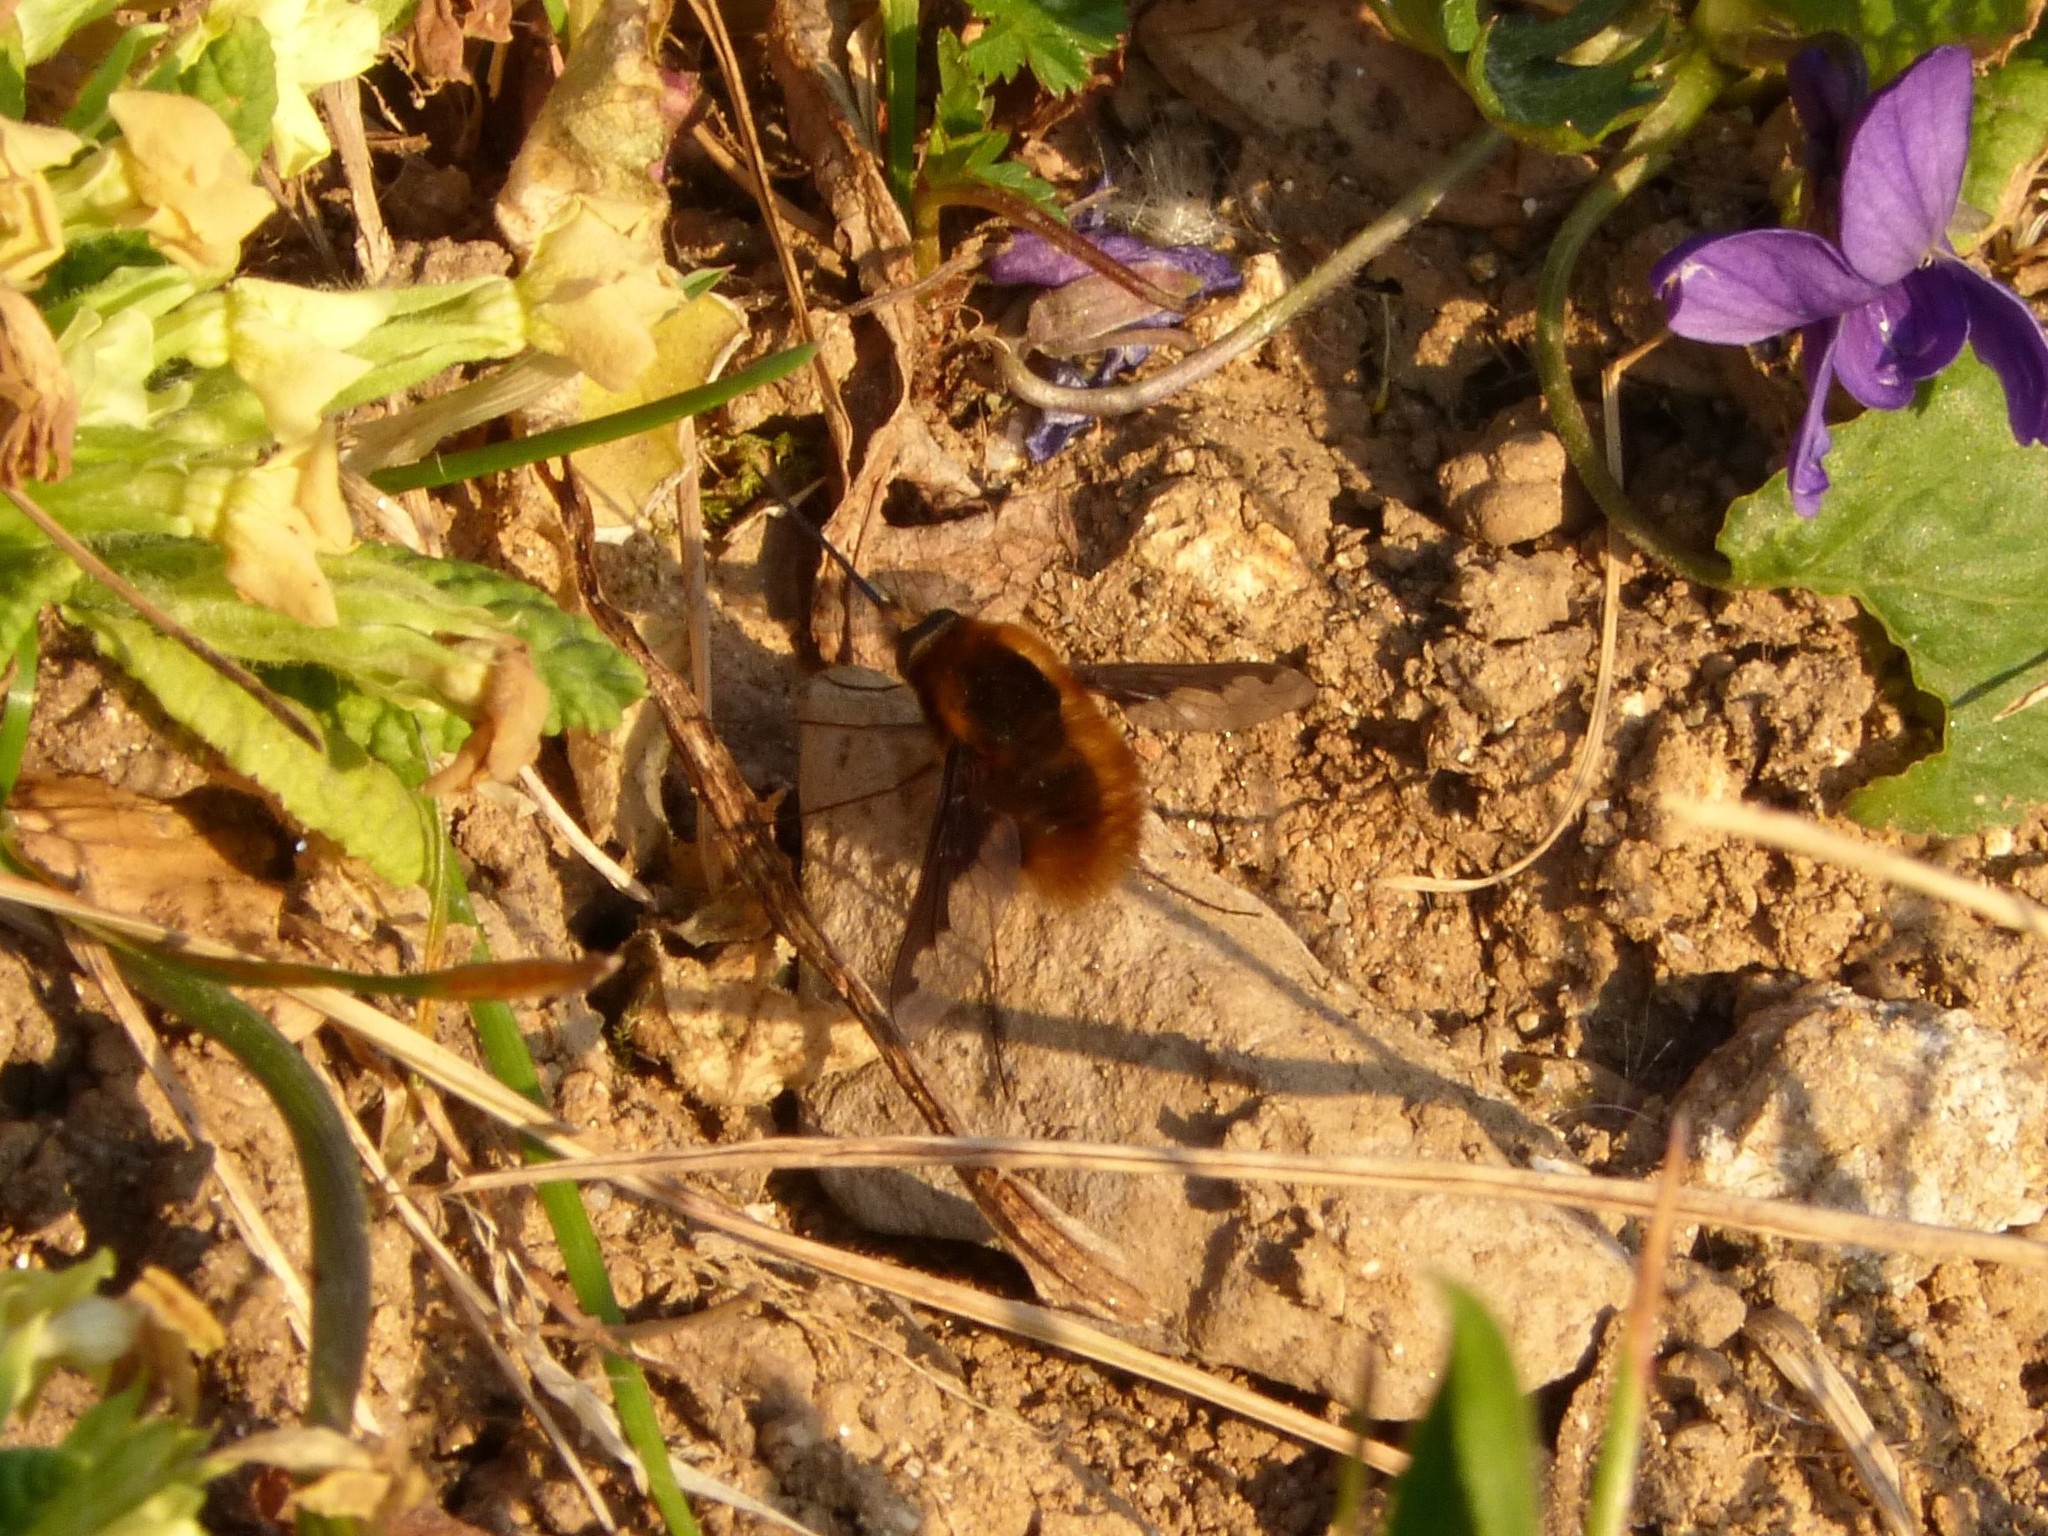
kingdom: Animalia
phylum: Arthropoda
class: Insecta
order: Diptera
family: Bombyliidae
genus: Bombylius
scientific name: Bombylius major
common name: Bee fly
